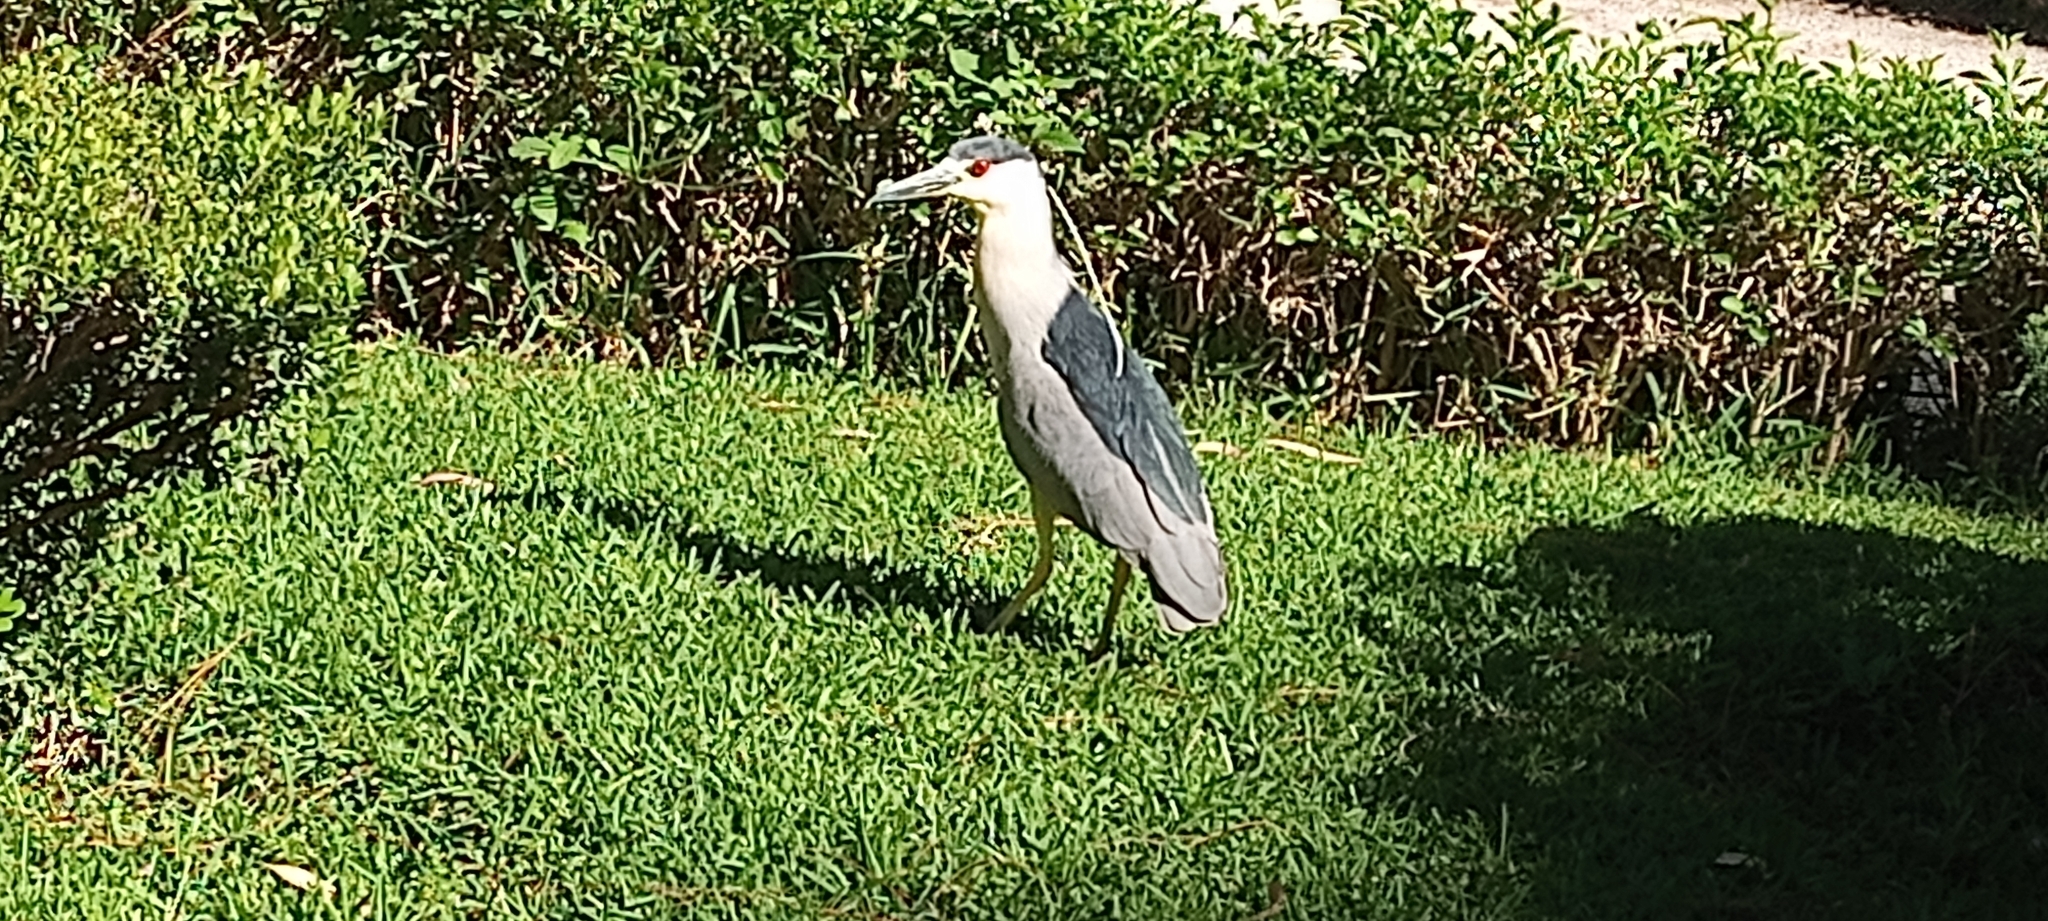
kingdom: Animalia
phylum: Chordata
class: Aves
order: Pelecaniformes
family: Ardeidae
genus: Nycticorax
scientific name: Nycticorax nycticorax
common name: Black-crowned night heron
